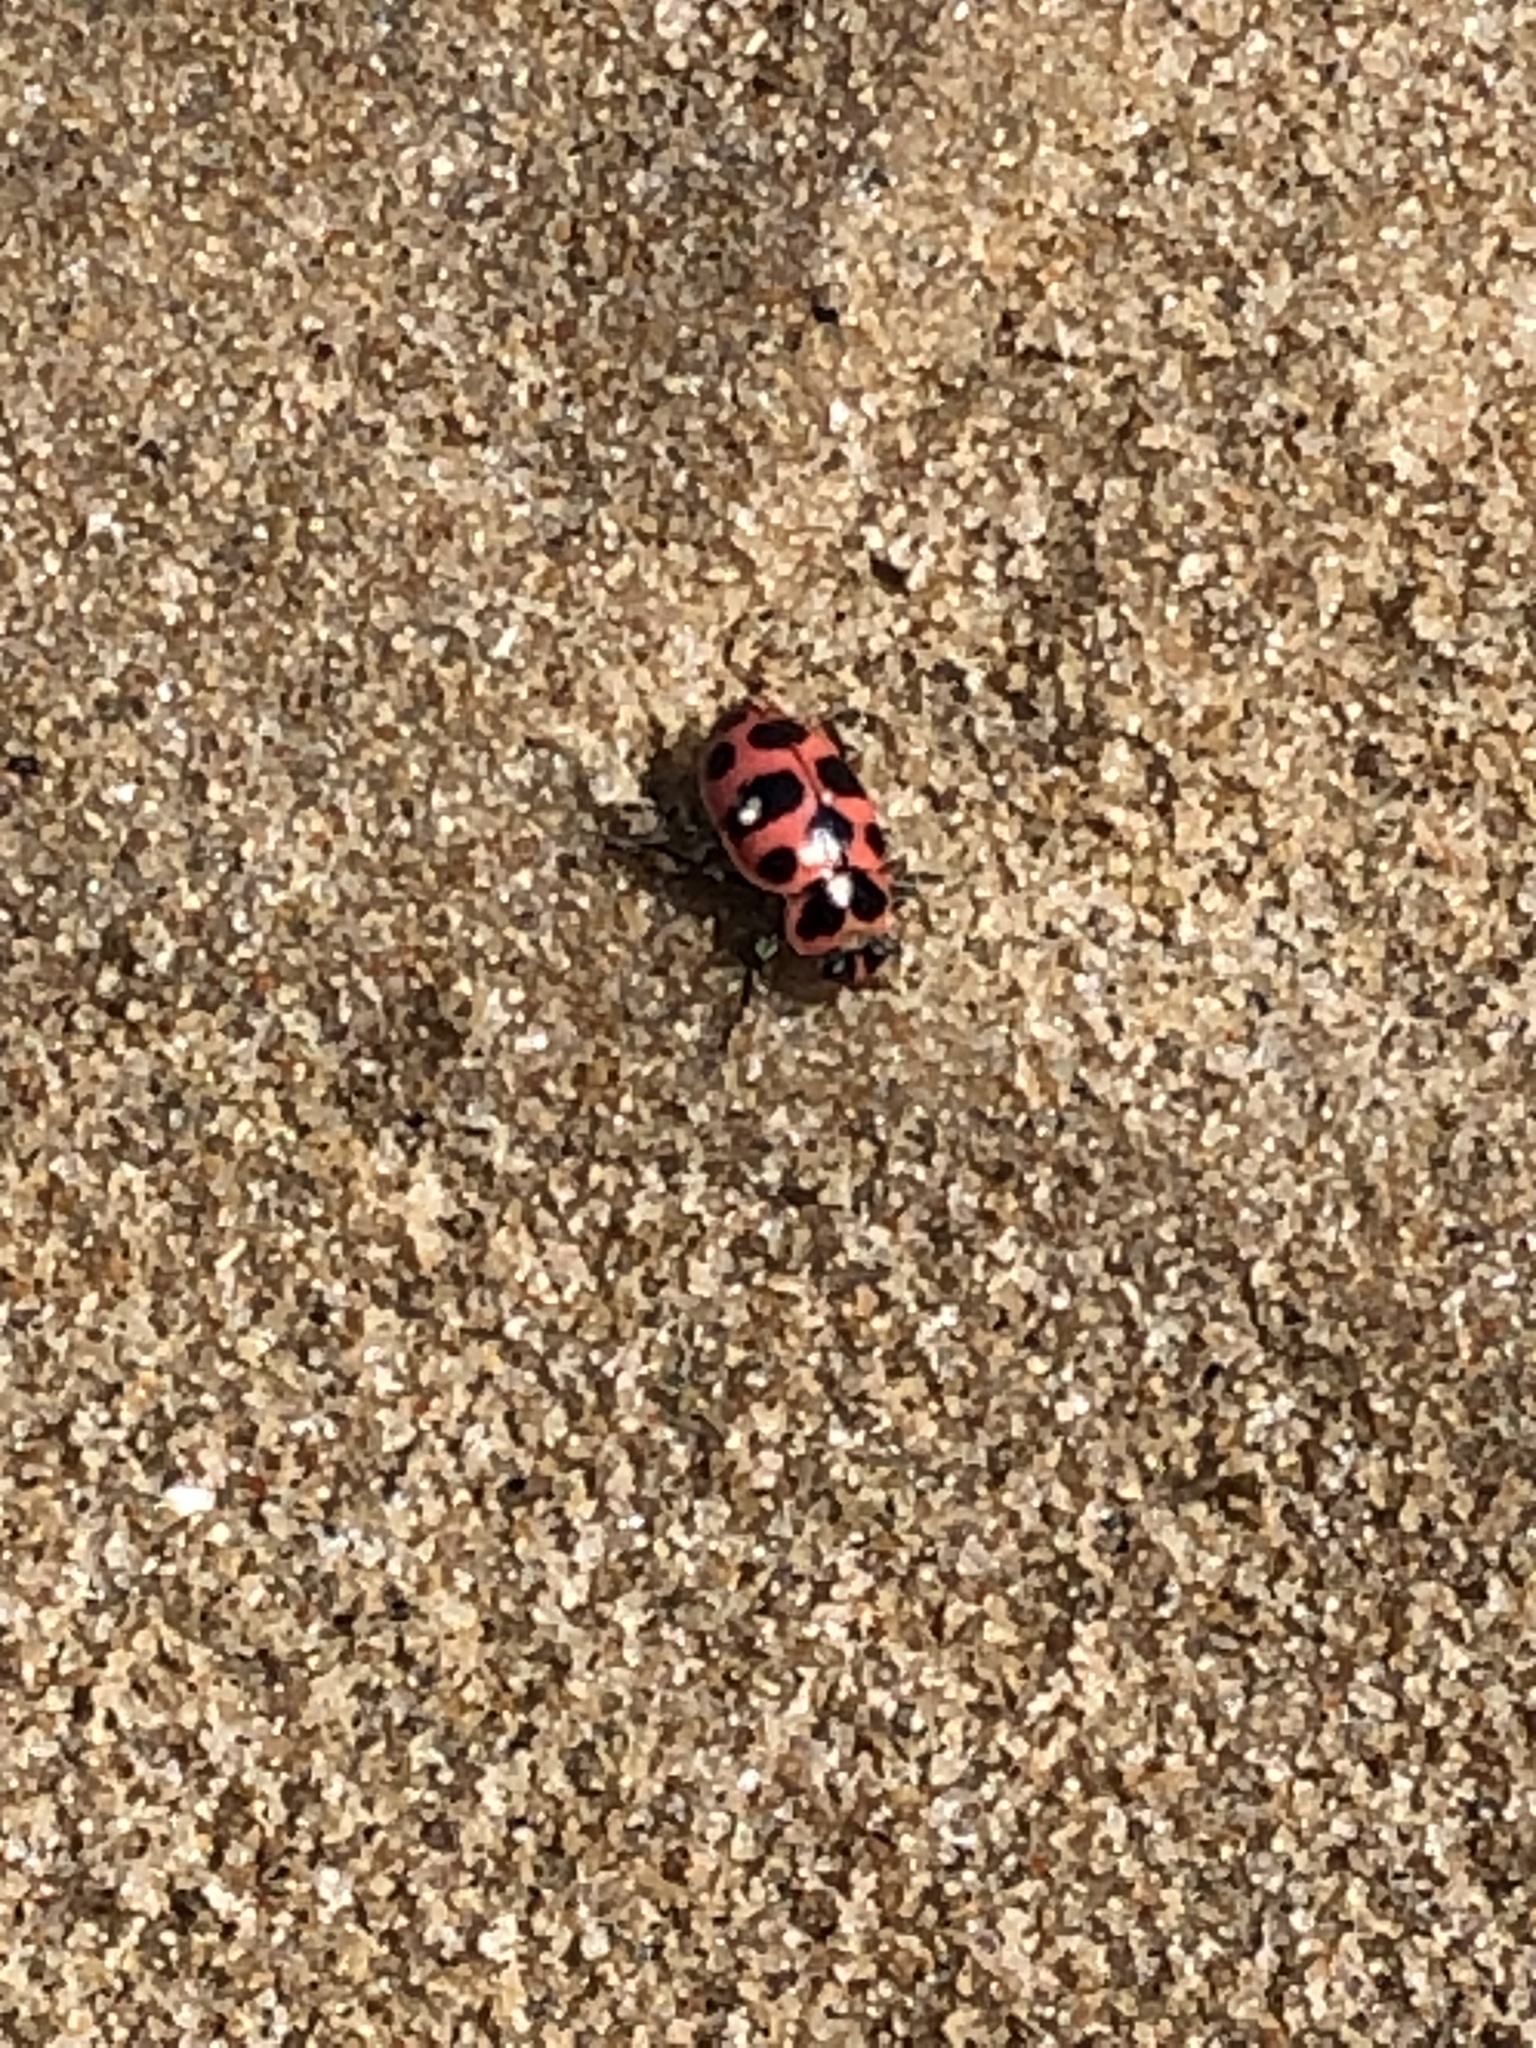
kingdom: Animalia
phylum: Arthropoda
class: Insecta
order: Coleoptera
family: Coccinellidae
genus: Coleomegilla
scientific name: Coleomegilla maculata
